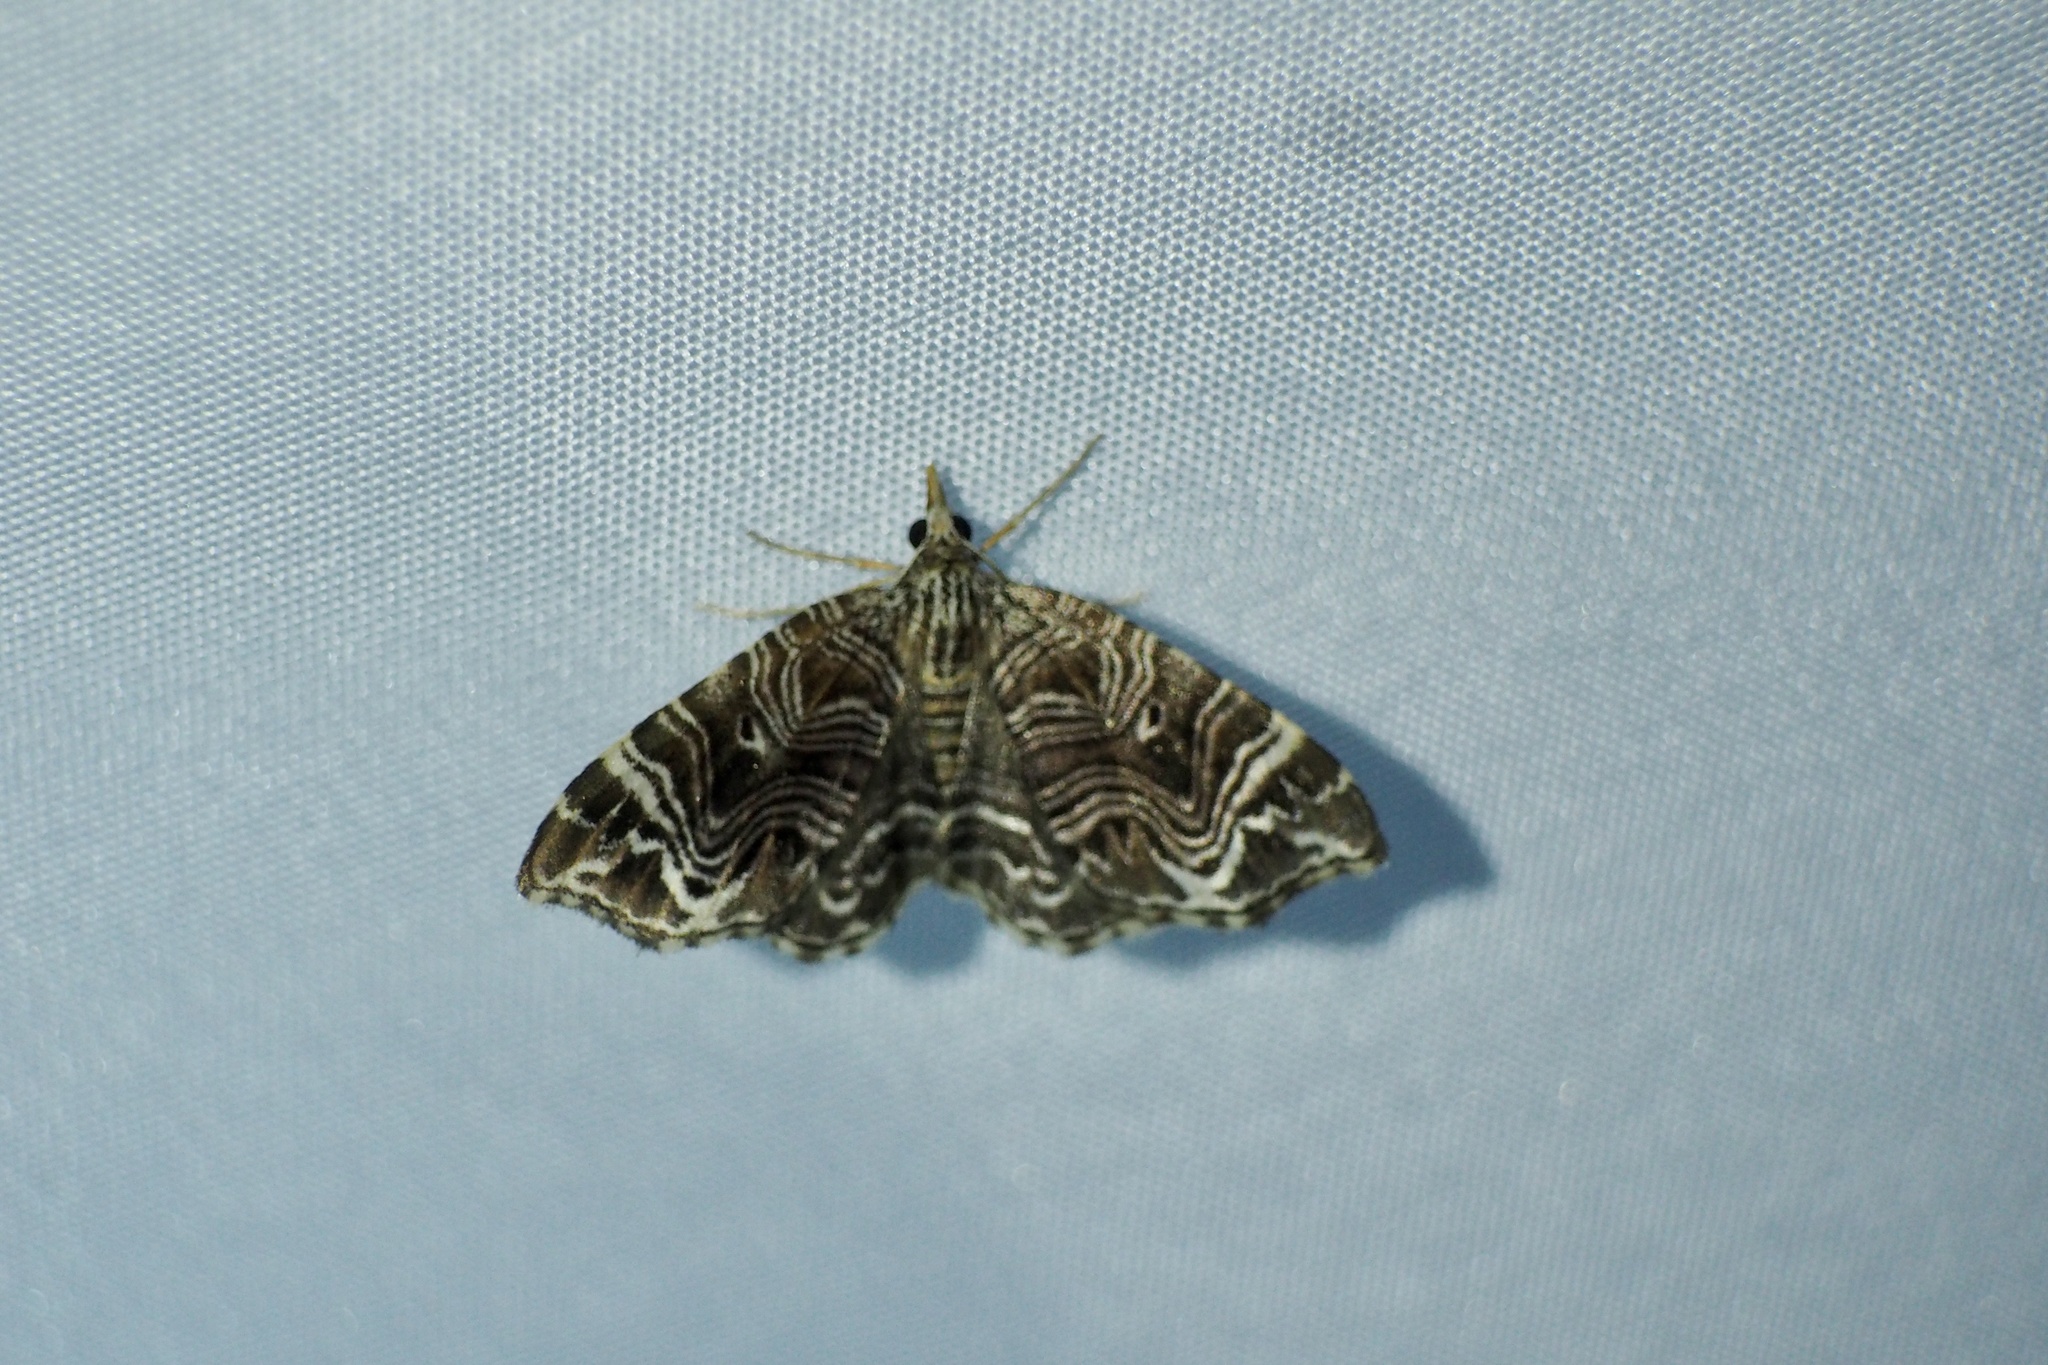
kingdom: Animalia
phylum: Arthropoda
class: Insecta
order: Lepidoptera
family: Geometridae
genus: Microlygris
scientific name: Microlygris multistriata
